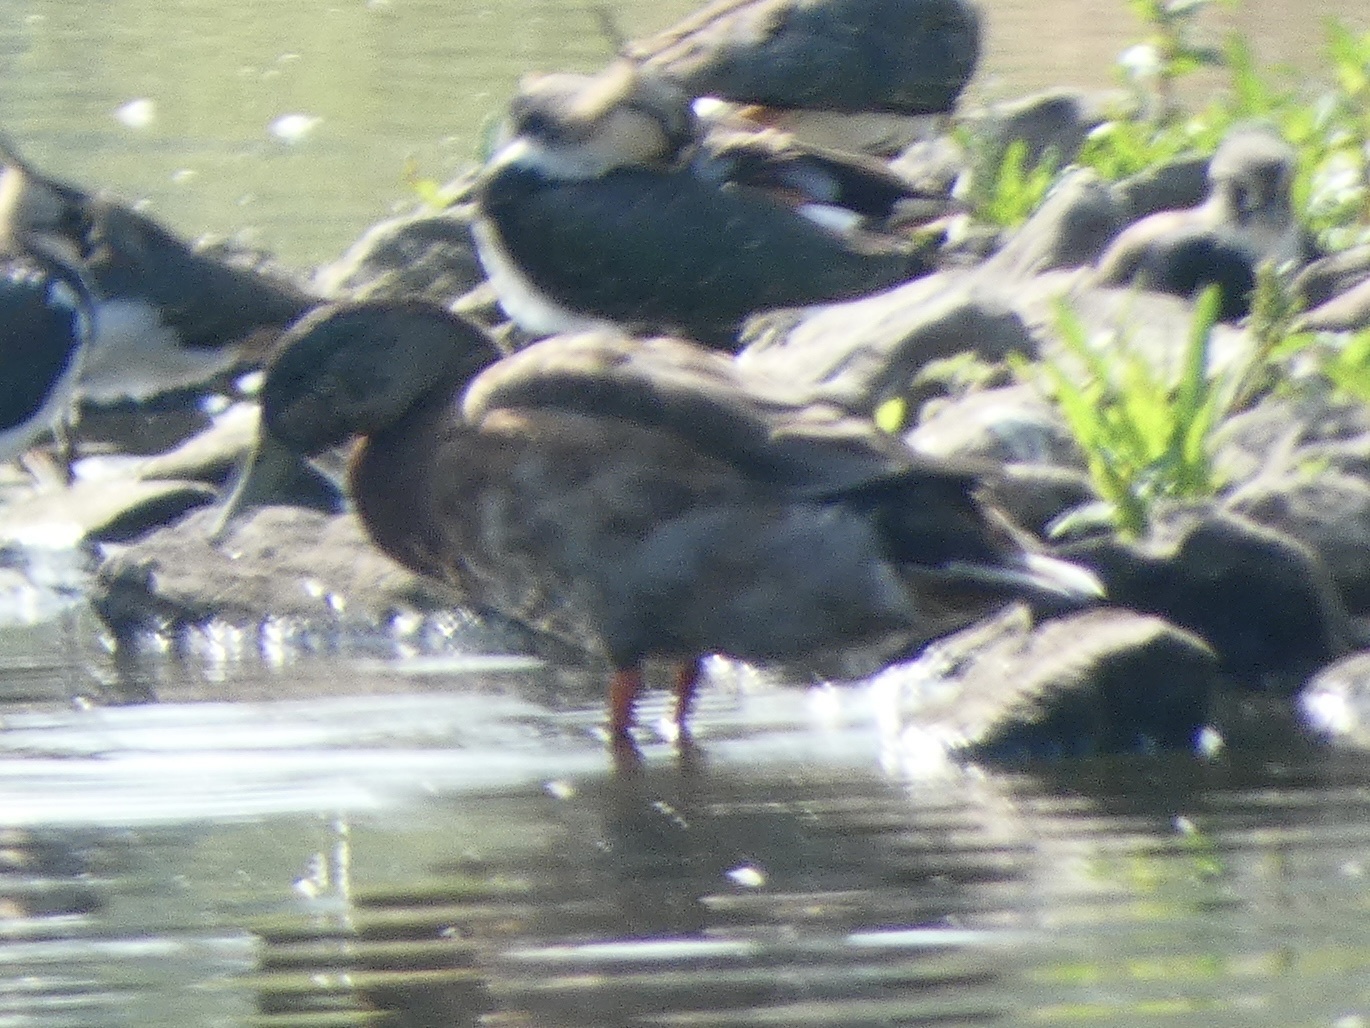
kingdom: Animalia
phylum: Chordata
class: Aves
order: Anseriformes
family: Anatidae
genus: Anas
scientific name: Anas platyrhynchos
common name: Mallard
